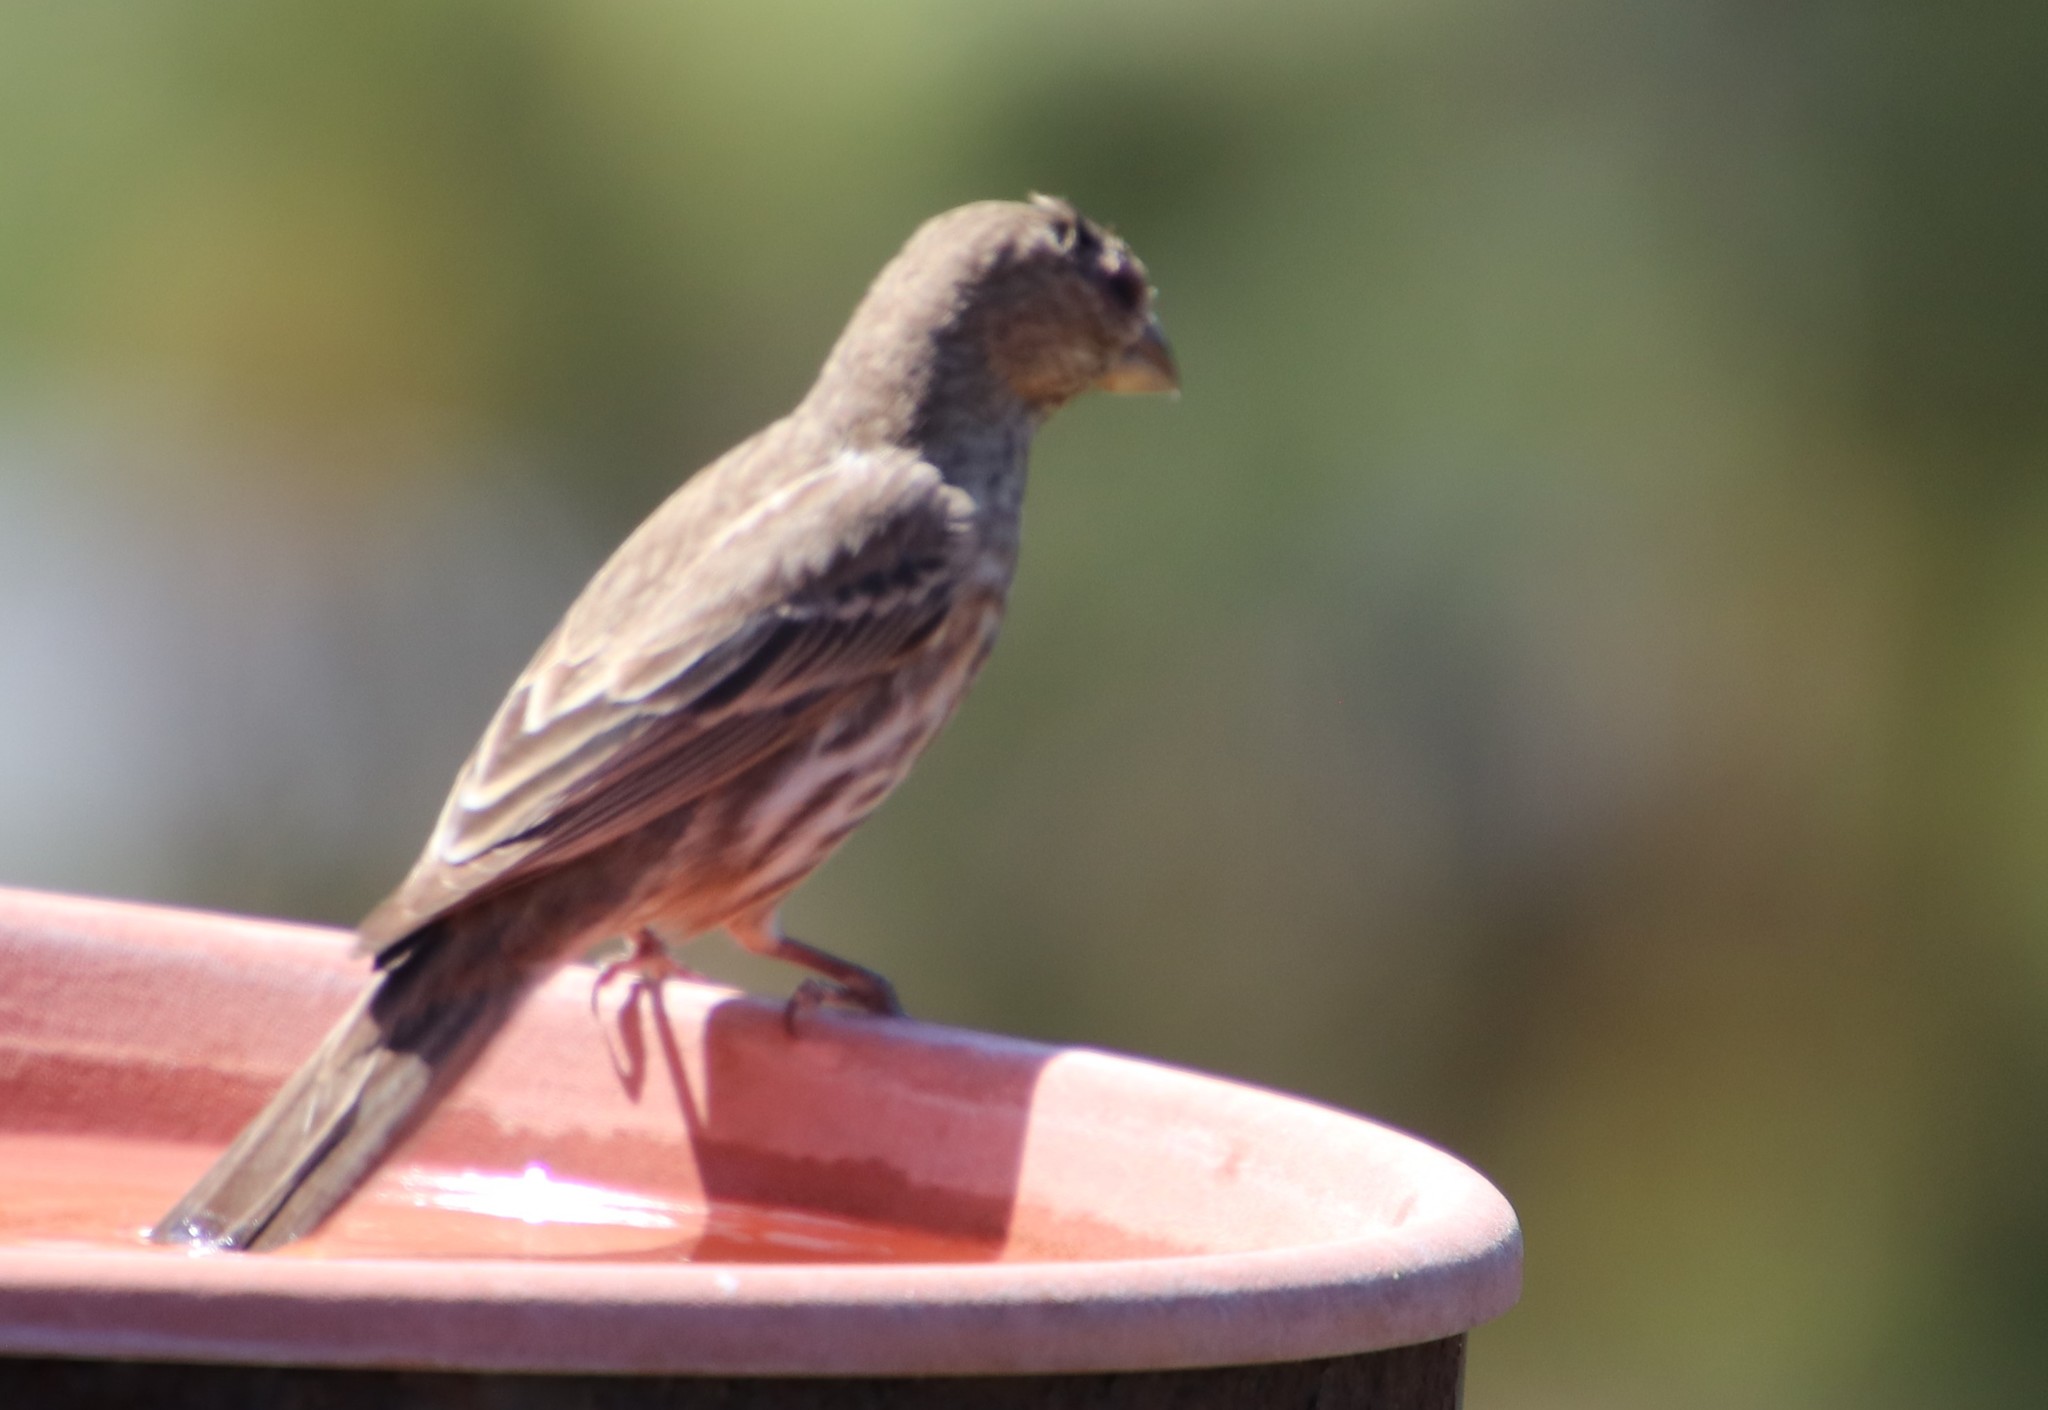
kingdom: Animalia
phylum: Chordata
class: Aves
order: Passeriformes
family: Fringillidae
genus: Haemorhous
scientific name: Haemorhous mexicanus
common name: House finch
